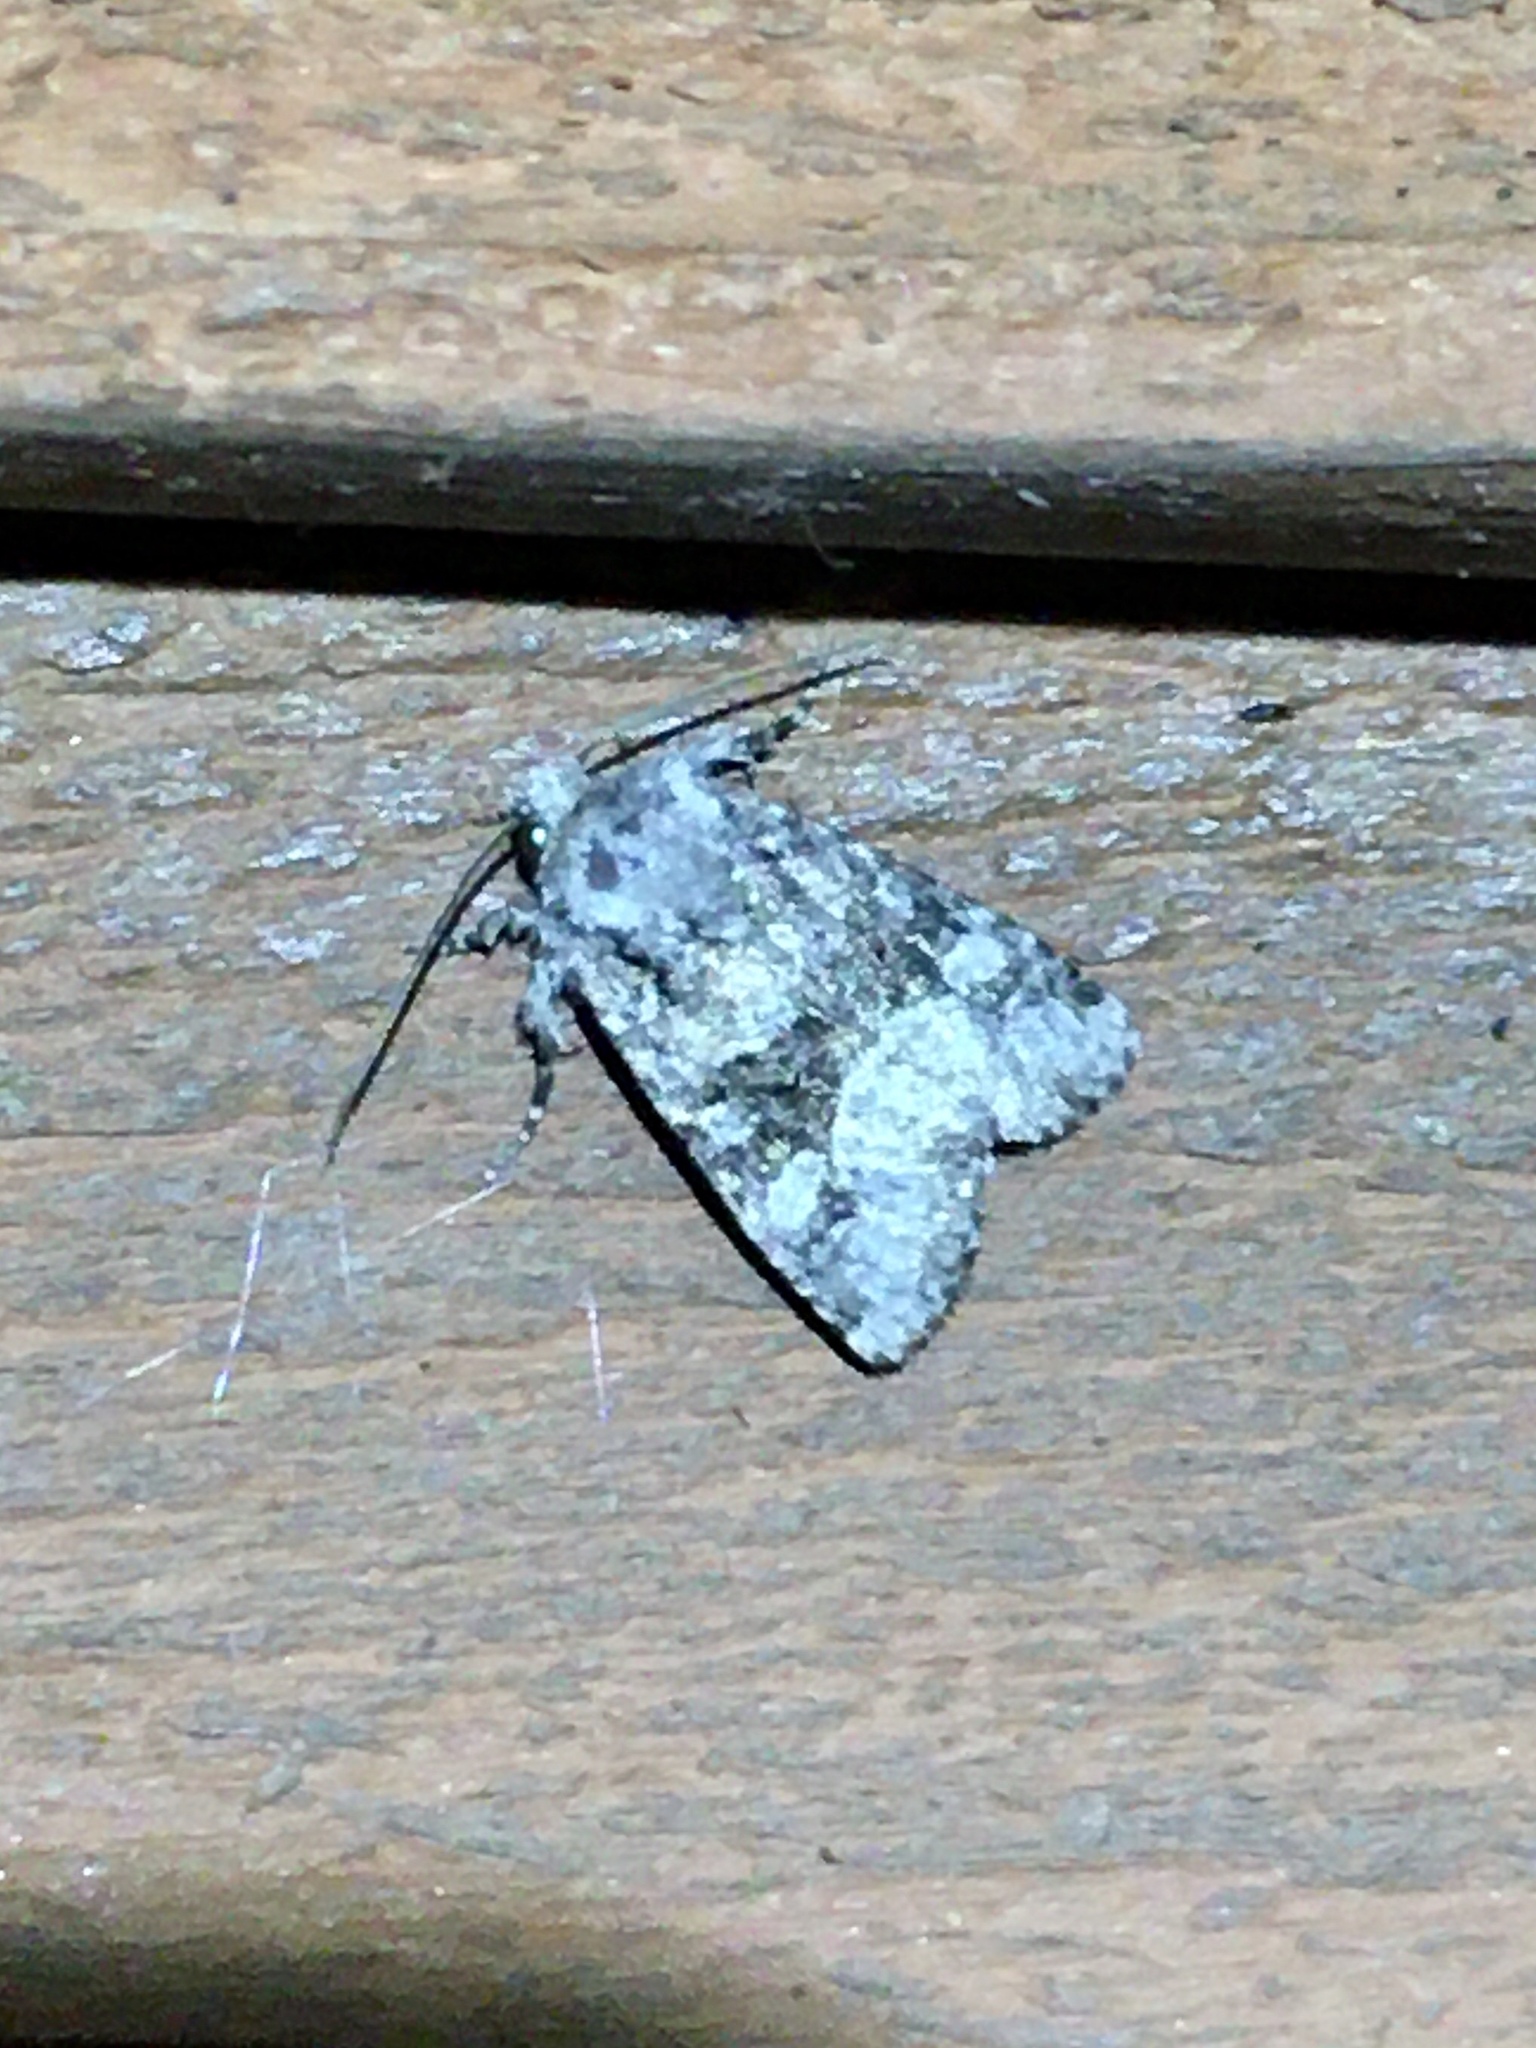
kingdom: Animalia
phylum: Arthropoda
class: Insecta
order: Lepidoptera
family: Noctuidae
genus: Lacinipolia
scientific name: Lacinipolia olivacea
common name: Olive arches moth
